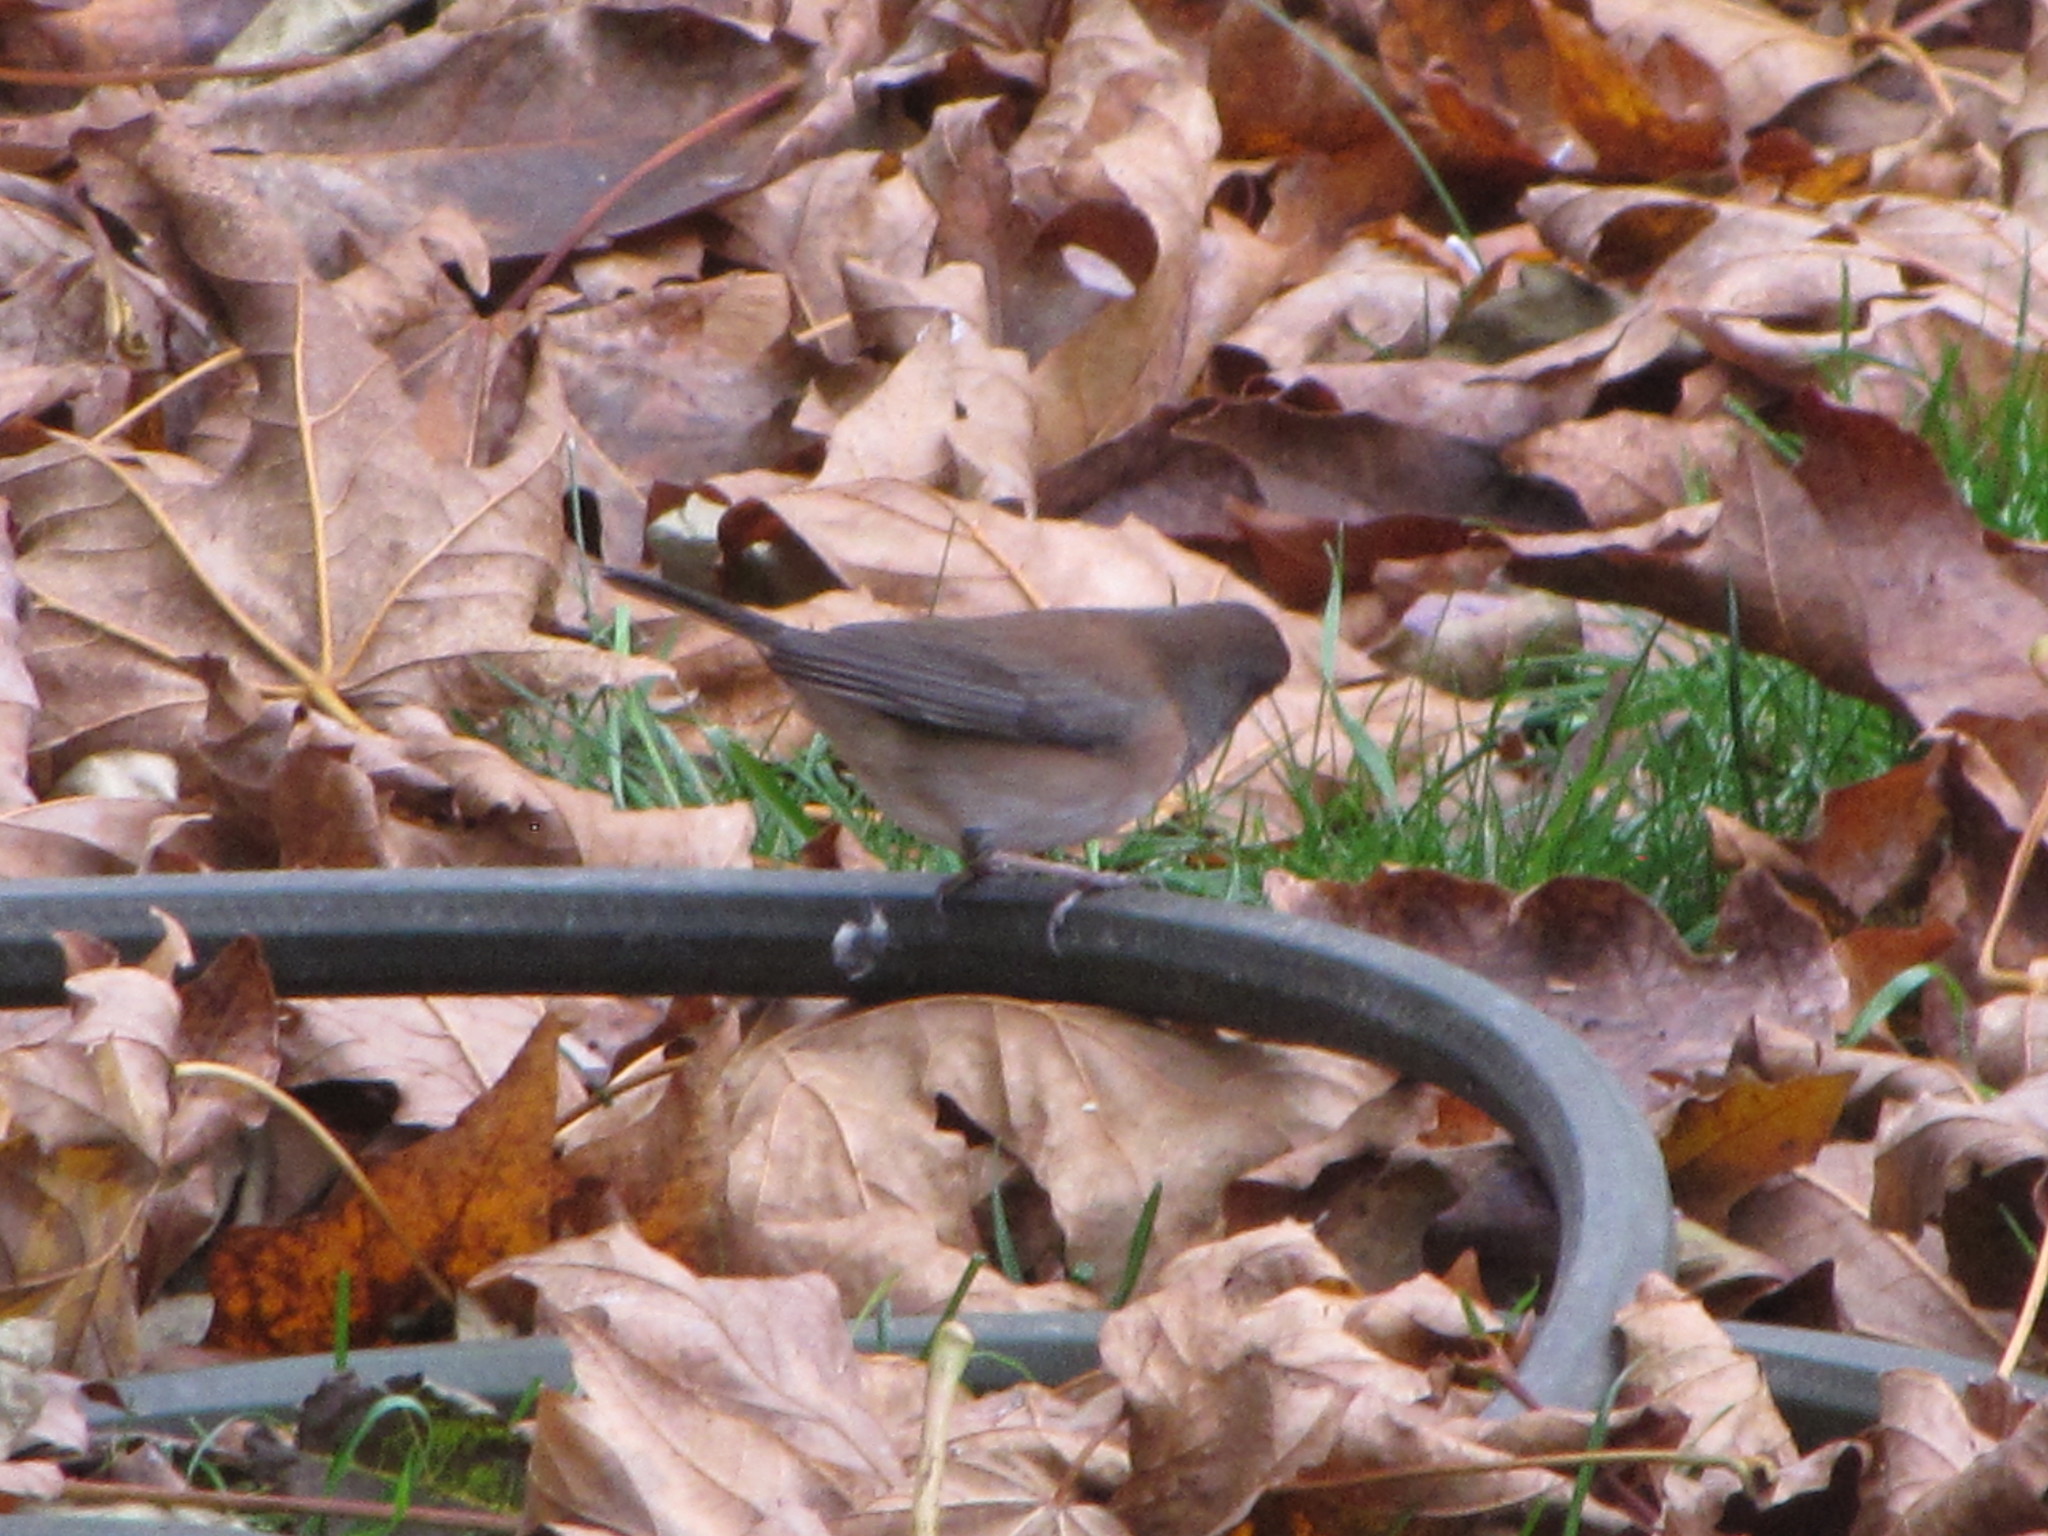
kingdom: Animalia
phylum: Chordata
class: Aves
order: Passeriformes
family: Passerellidae
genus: Junco
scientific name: Junco hyemalis
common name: Dark-eyed junco
